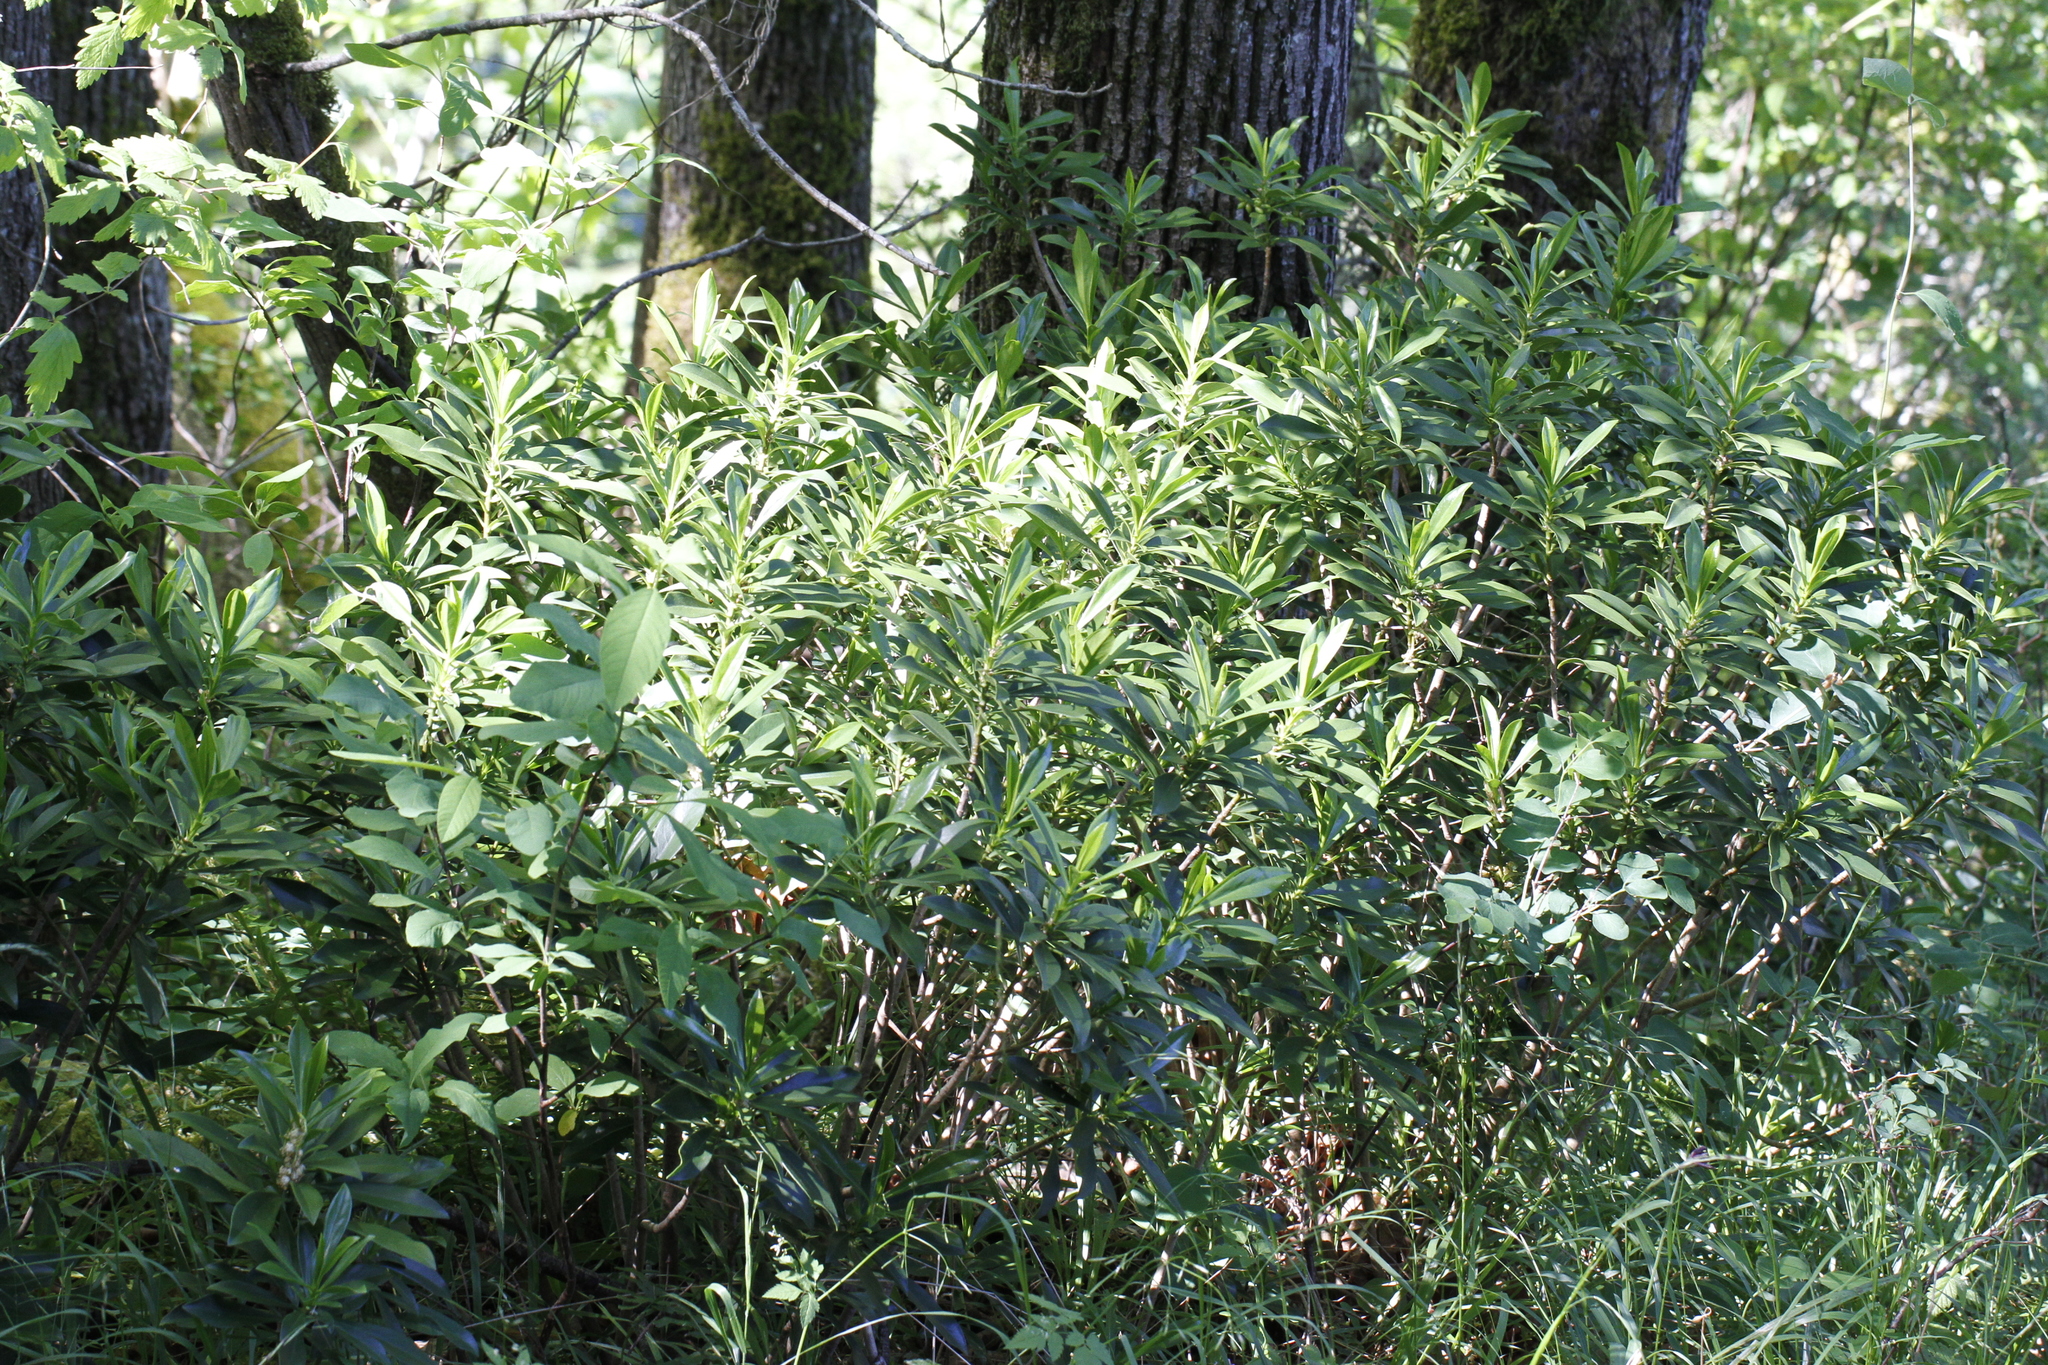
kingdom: Plantae
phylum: Tracheophyta
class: Magnoliopsida
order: Malvales
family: Thymelaeaceae
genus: Daphne
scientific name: Daphne laureola
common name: Spurge-laurel
